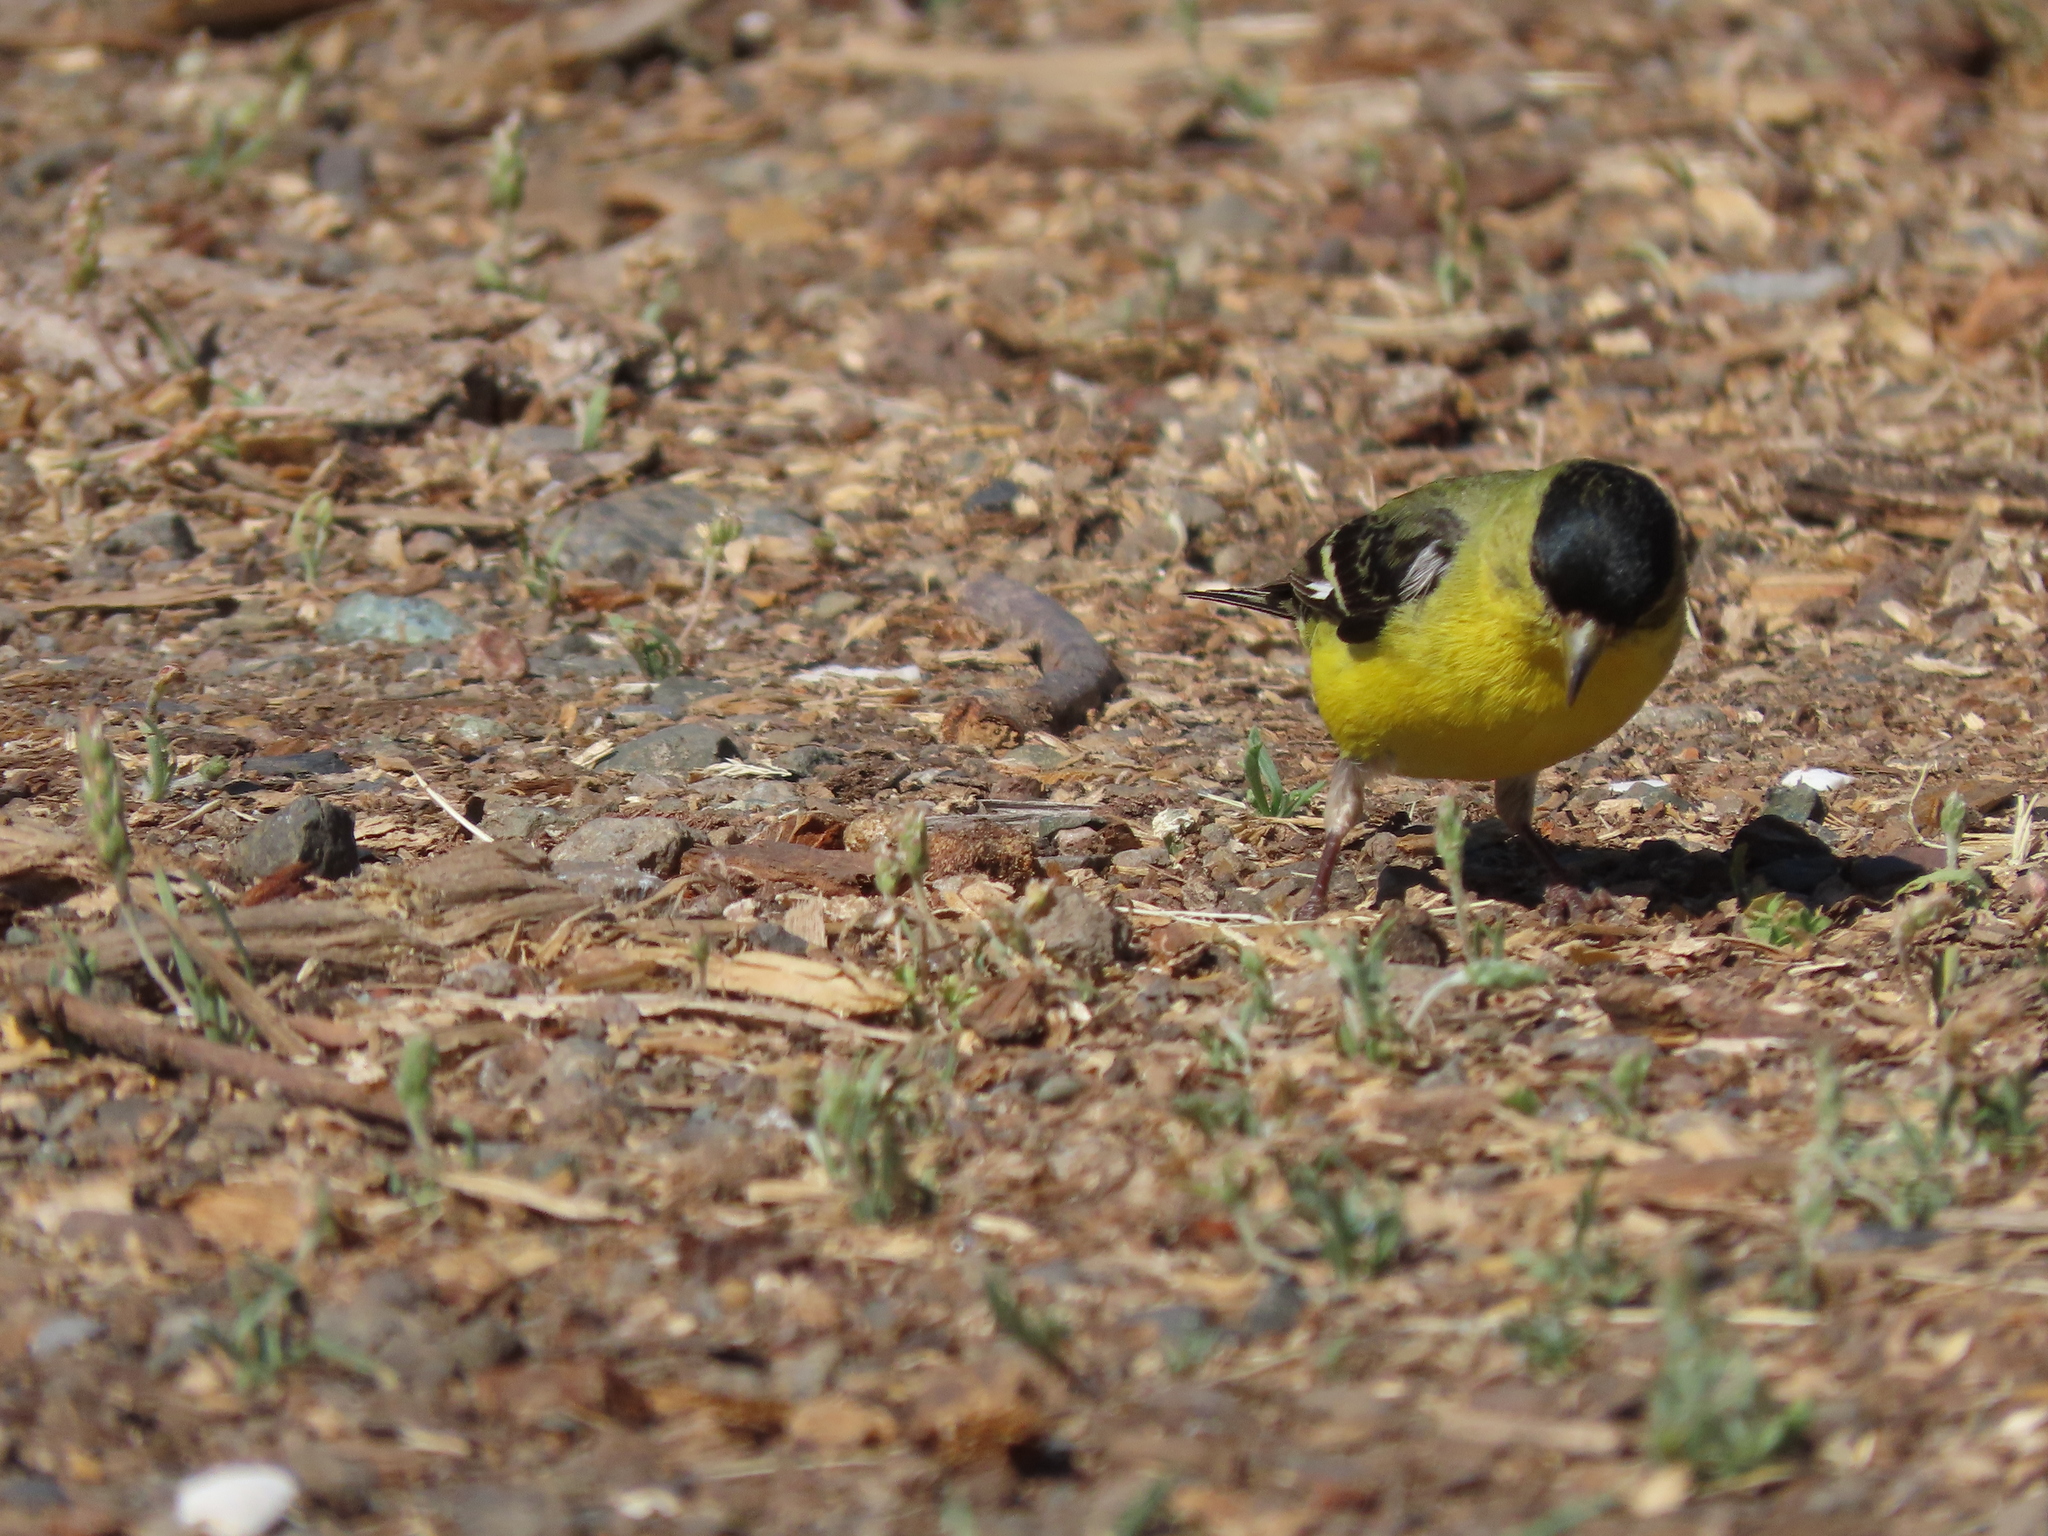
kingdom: Animalia
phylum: Chordata
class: Aves
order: Passeriformes
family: Fringillidae
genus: Spinus
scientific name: Spinus psaltria
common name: Lesser goldfinch
